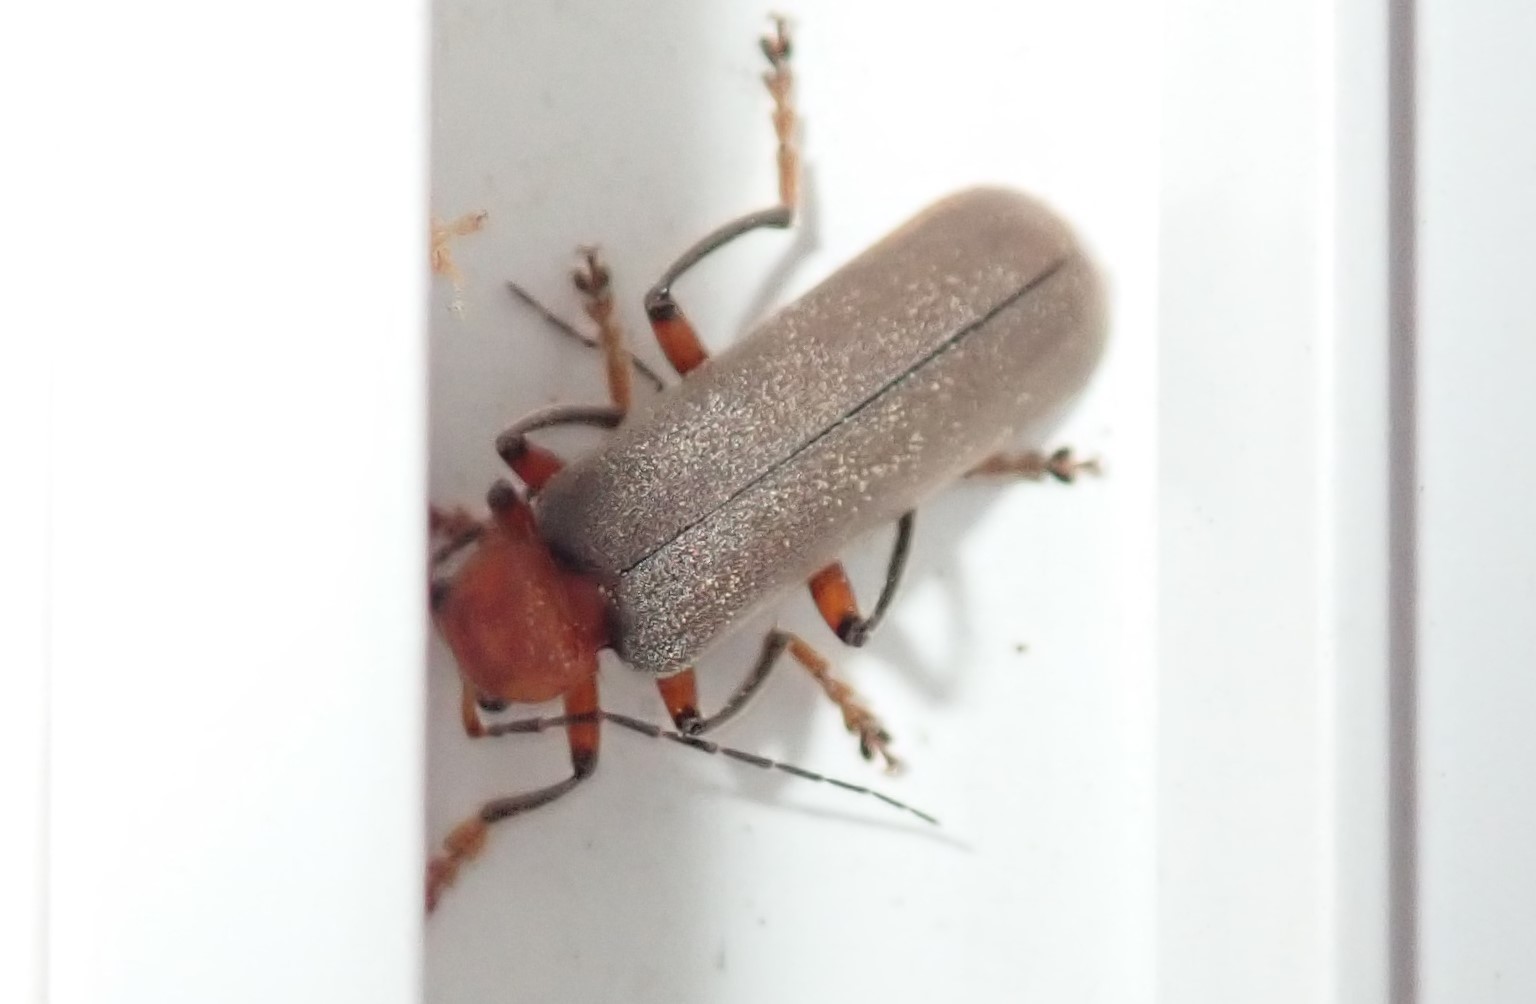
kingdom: Animalia
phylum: Arthropoda
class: Insecta
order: Coleoptera
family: Cantharidae
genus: Pacificanthia
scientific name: Pacificanthia consors
